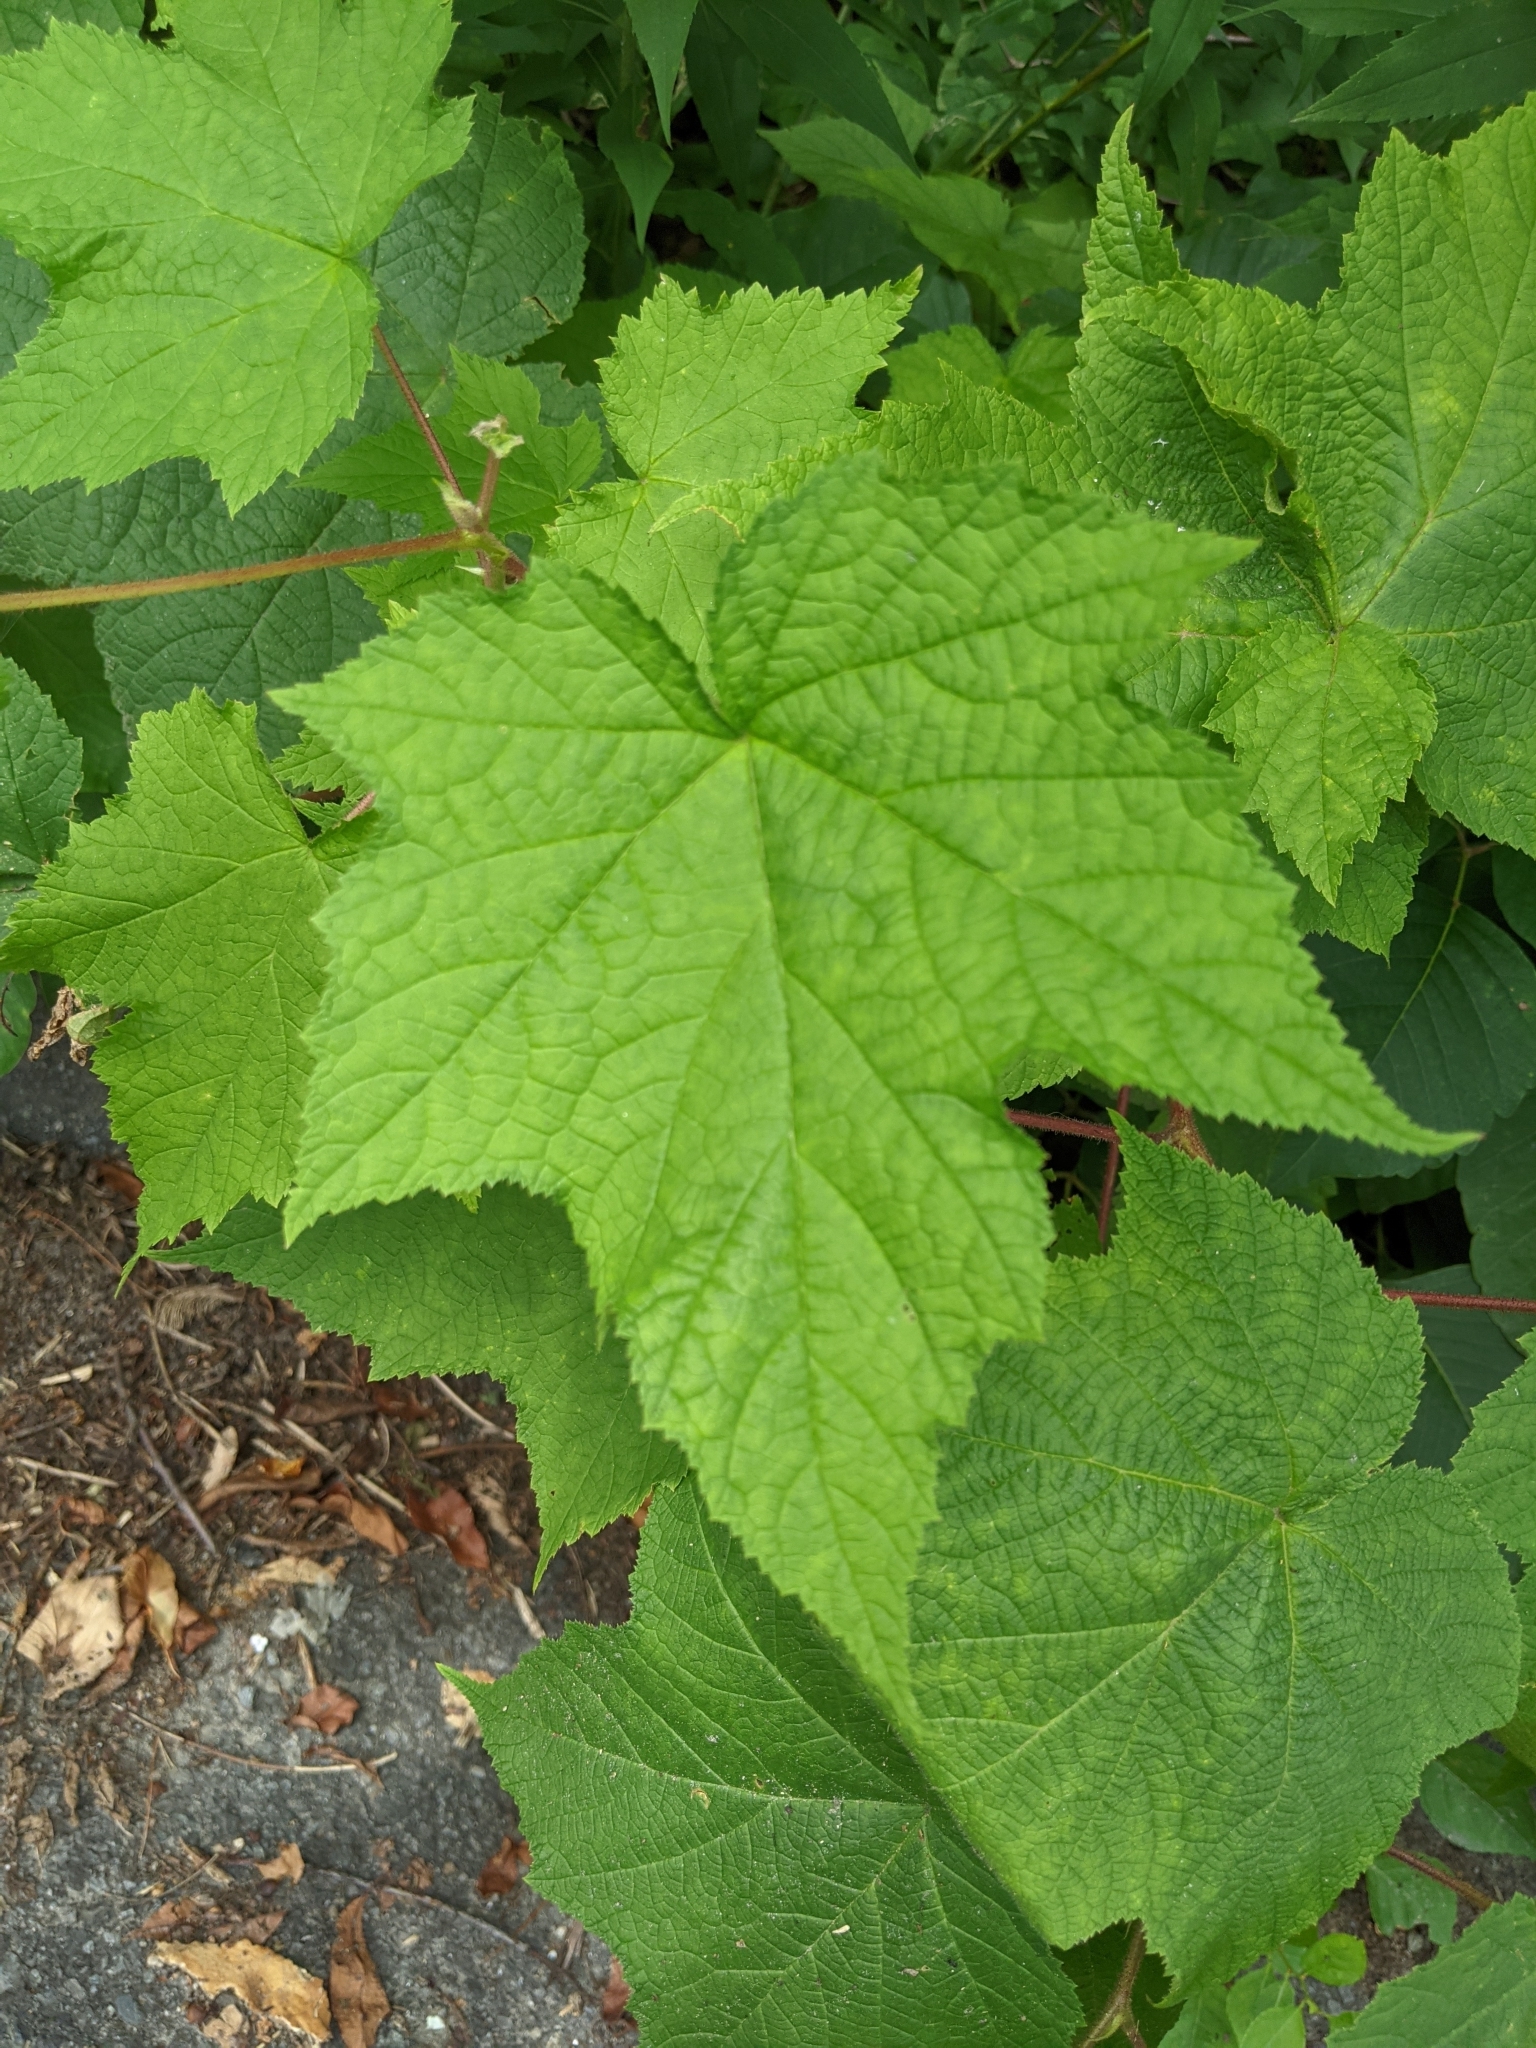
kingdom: Plantae
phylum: Tracheophyta
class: Magnoliopsida
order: Rosales
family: Rosaceae
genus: Rubus
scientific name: Rubus odoratus
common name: Purple-flowered raspberry
